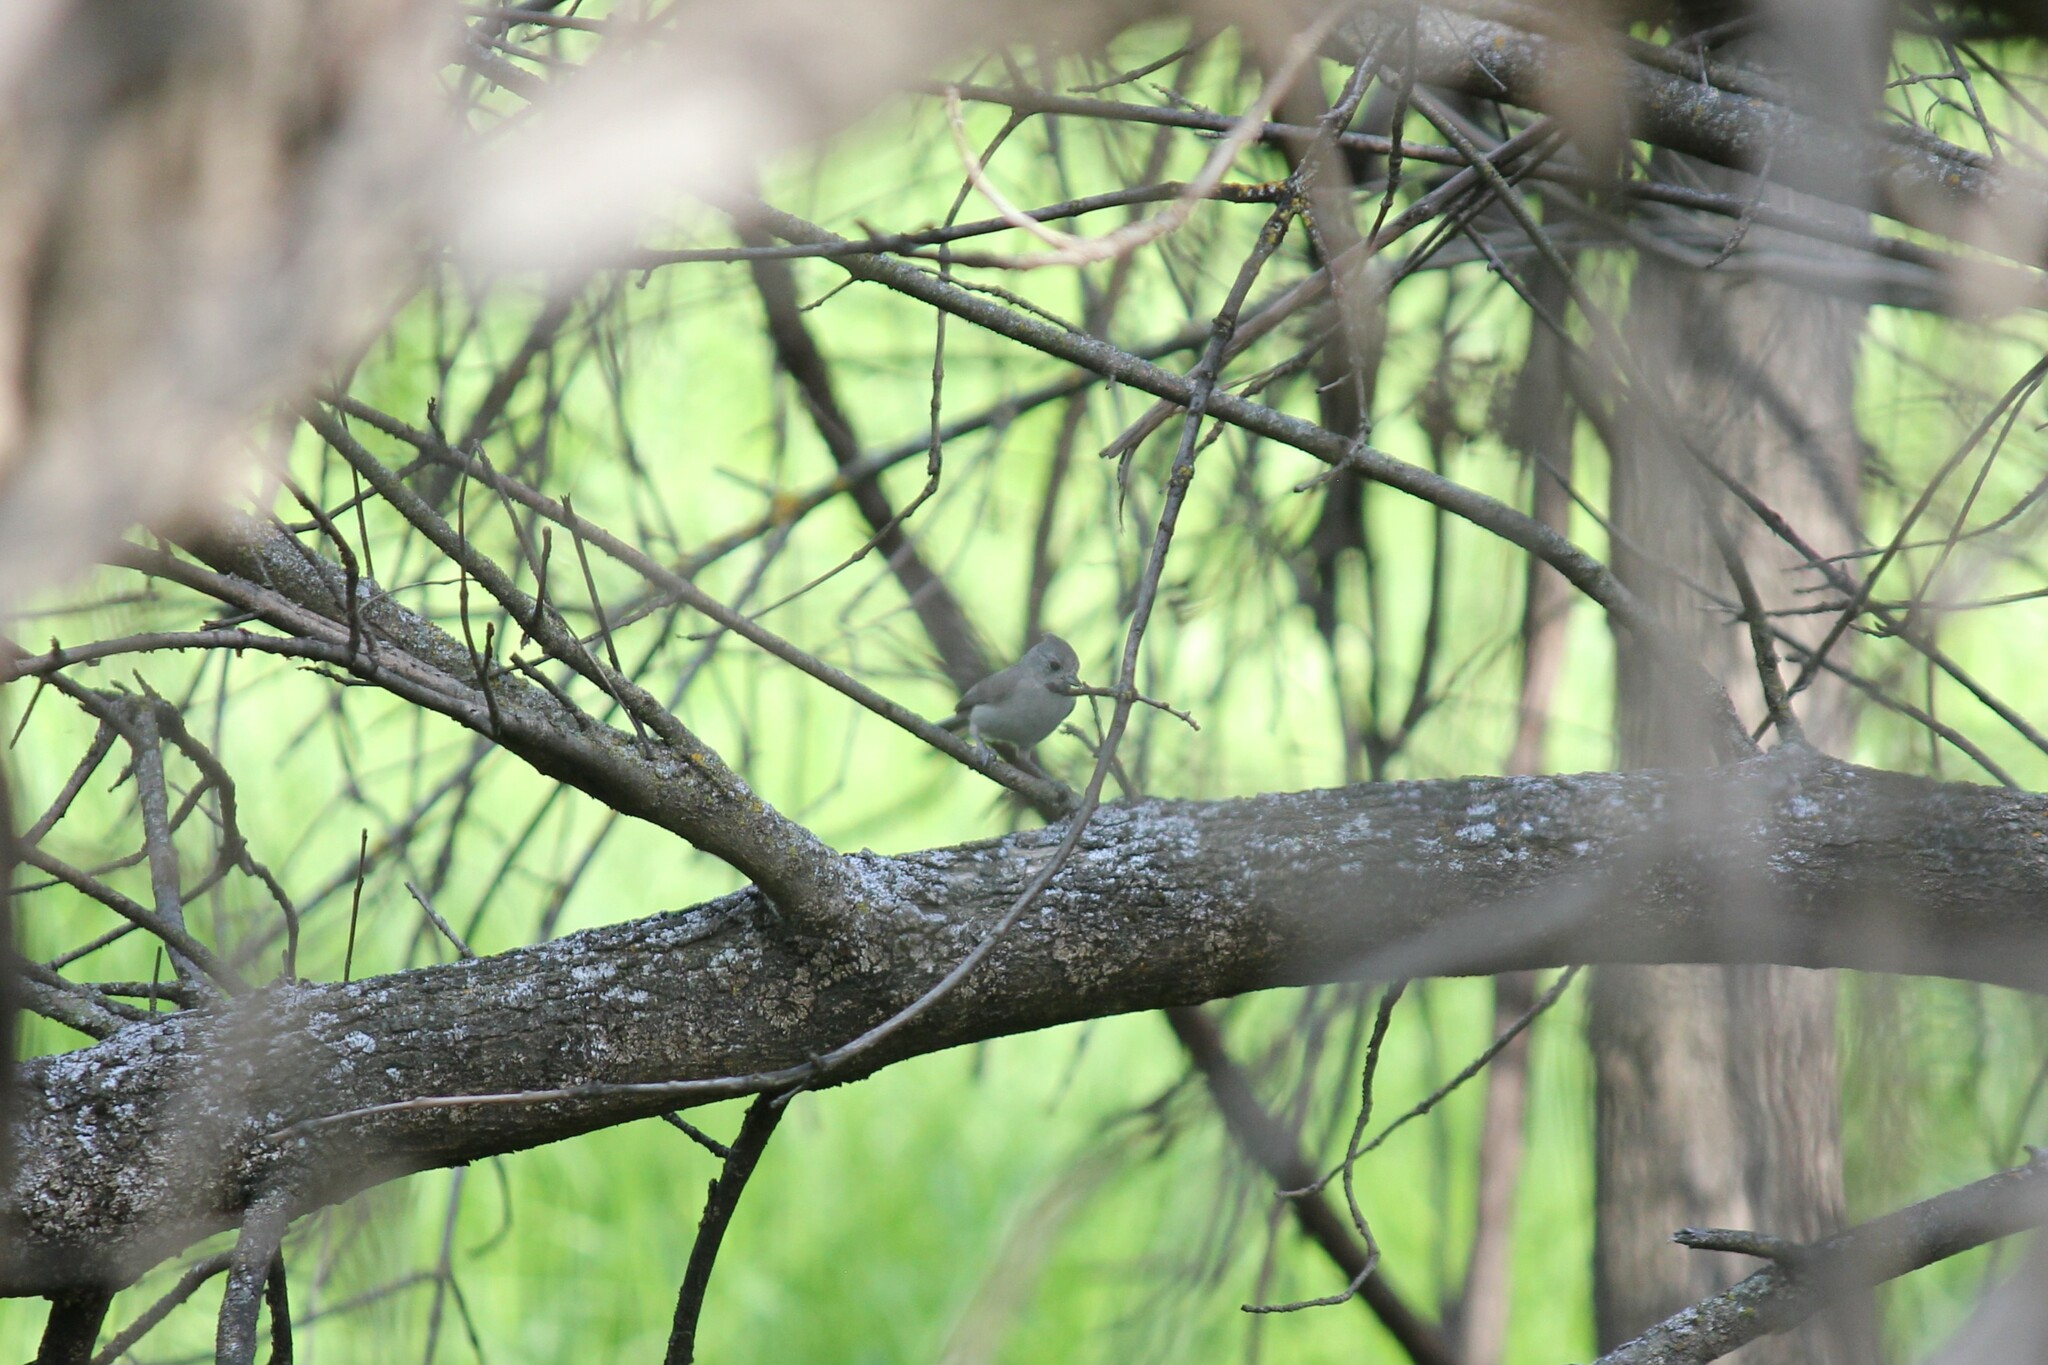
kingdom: Animalia
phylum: Chordata
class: Aves
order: Passeriformes
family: Paridae
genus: Baeolophus
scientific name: Baeolophus inornatus
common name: Oak titmouse
